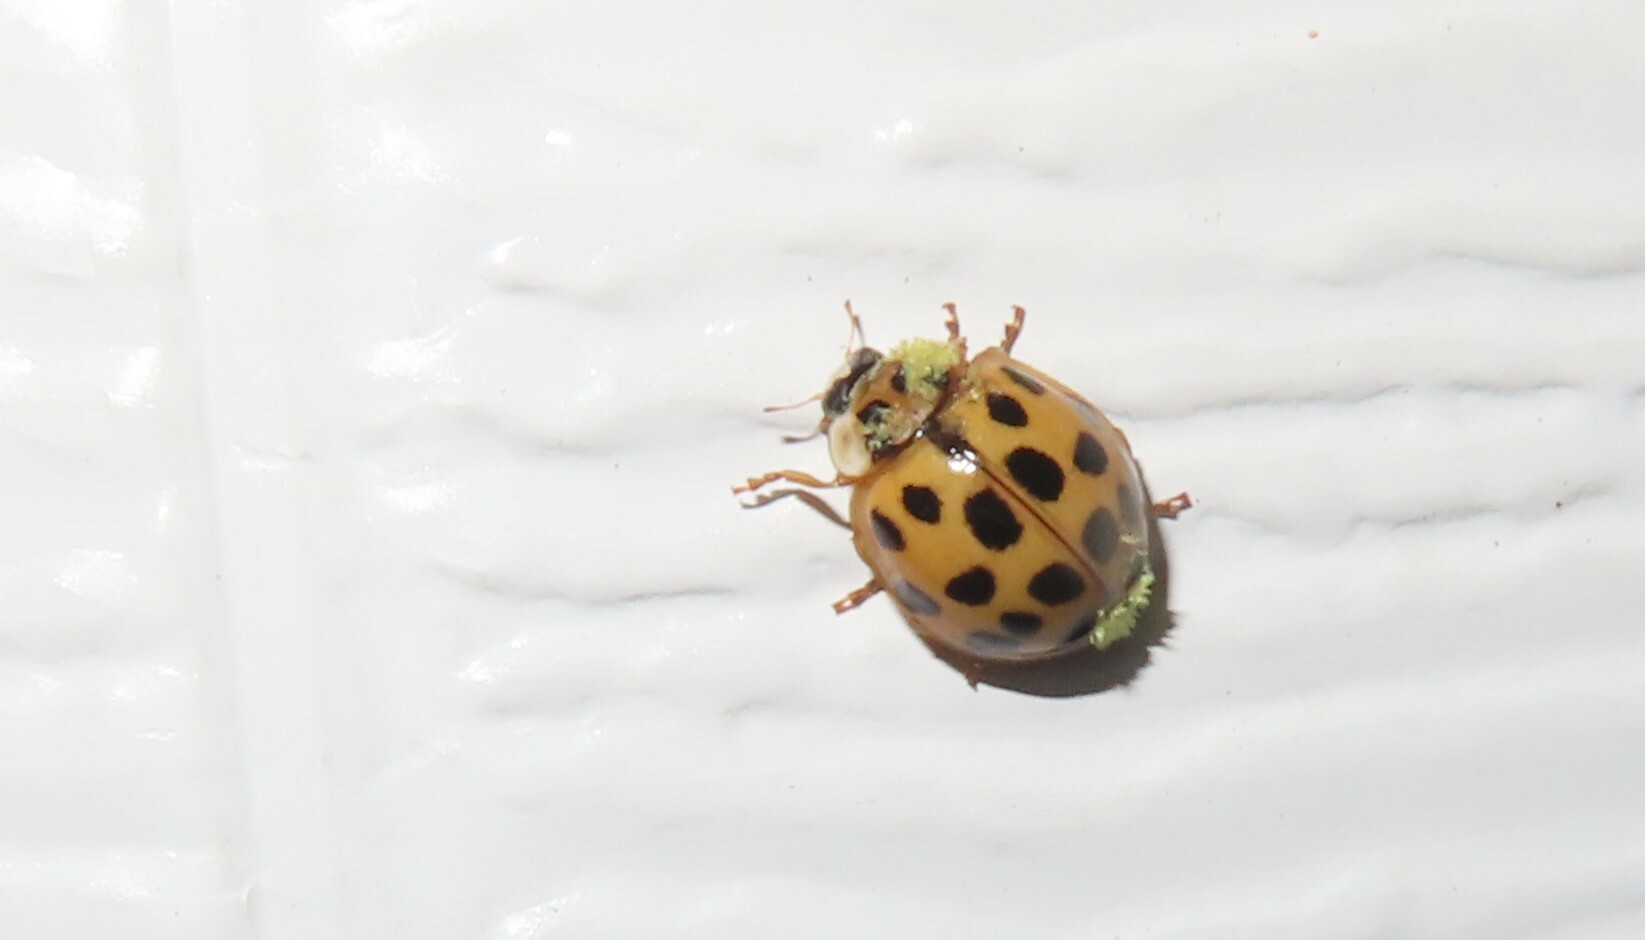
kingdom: Animalia
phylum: Arthropoda
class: Insecta
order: Coleoptera
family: Coccinellidae
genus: Harmonia
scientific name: Harmonia axyridis
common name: Harlequin ladybird
